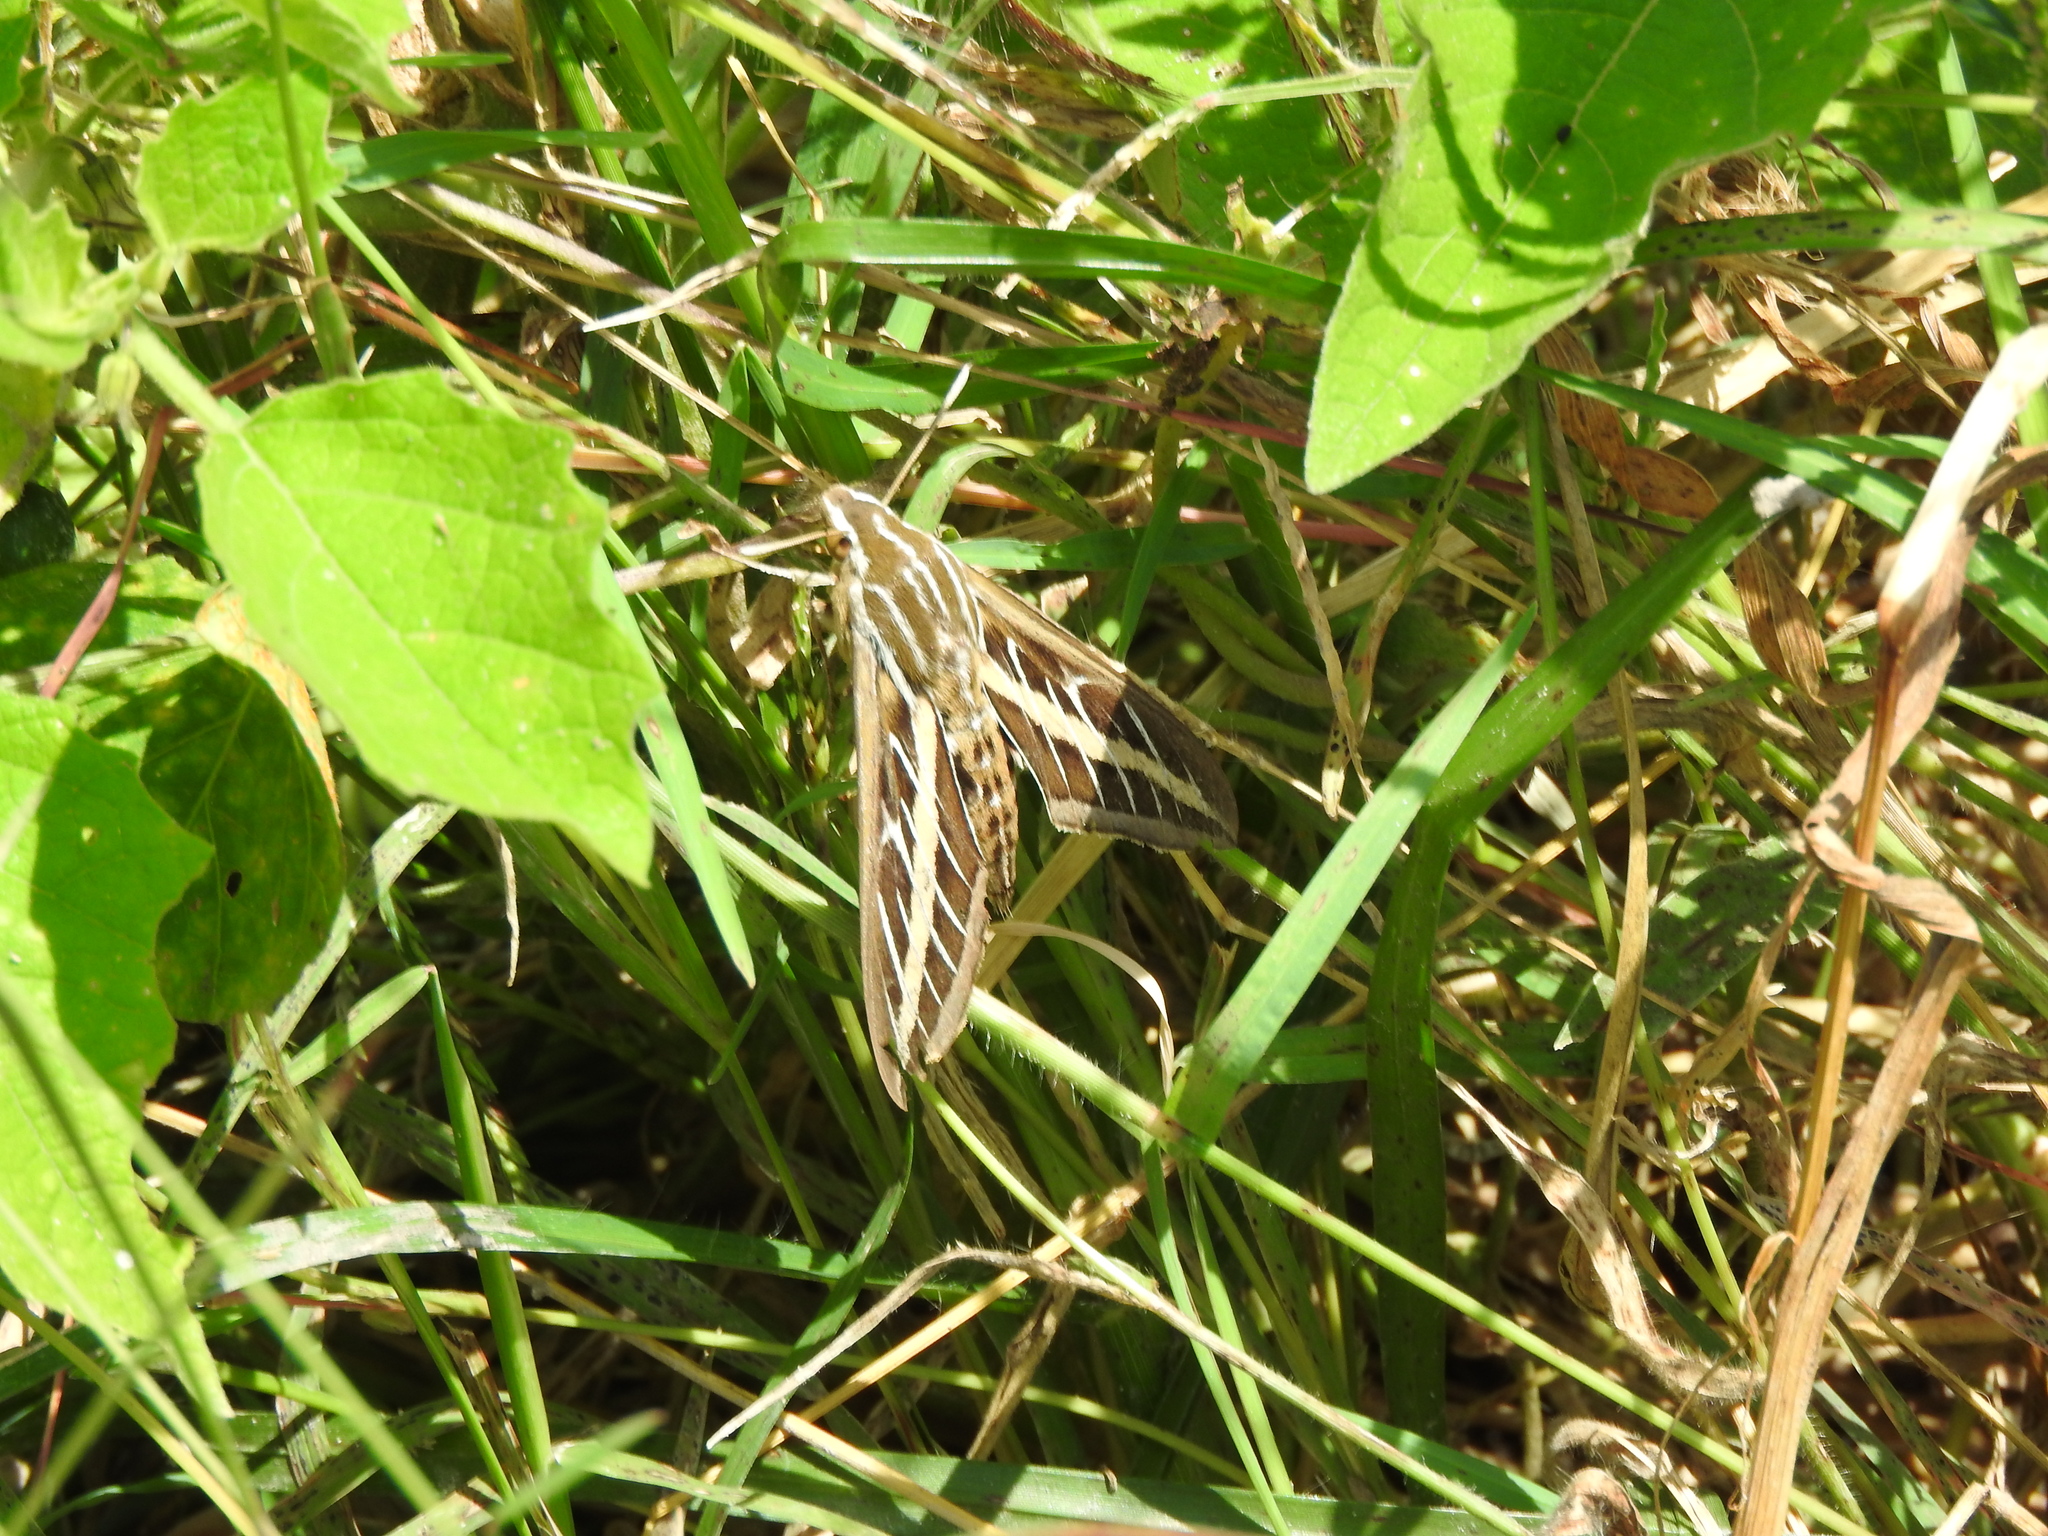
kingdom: Animalia
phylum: Arthropoda
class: Insecta
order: Lepidoptera
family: Sphingidae
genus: Hyles
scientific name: Hyles lineata
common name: White-lined sphinx
